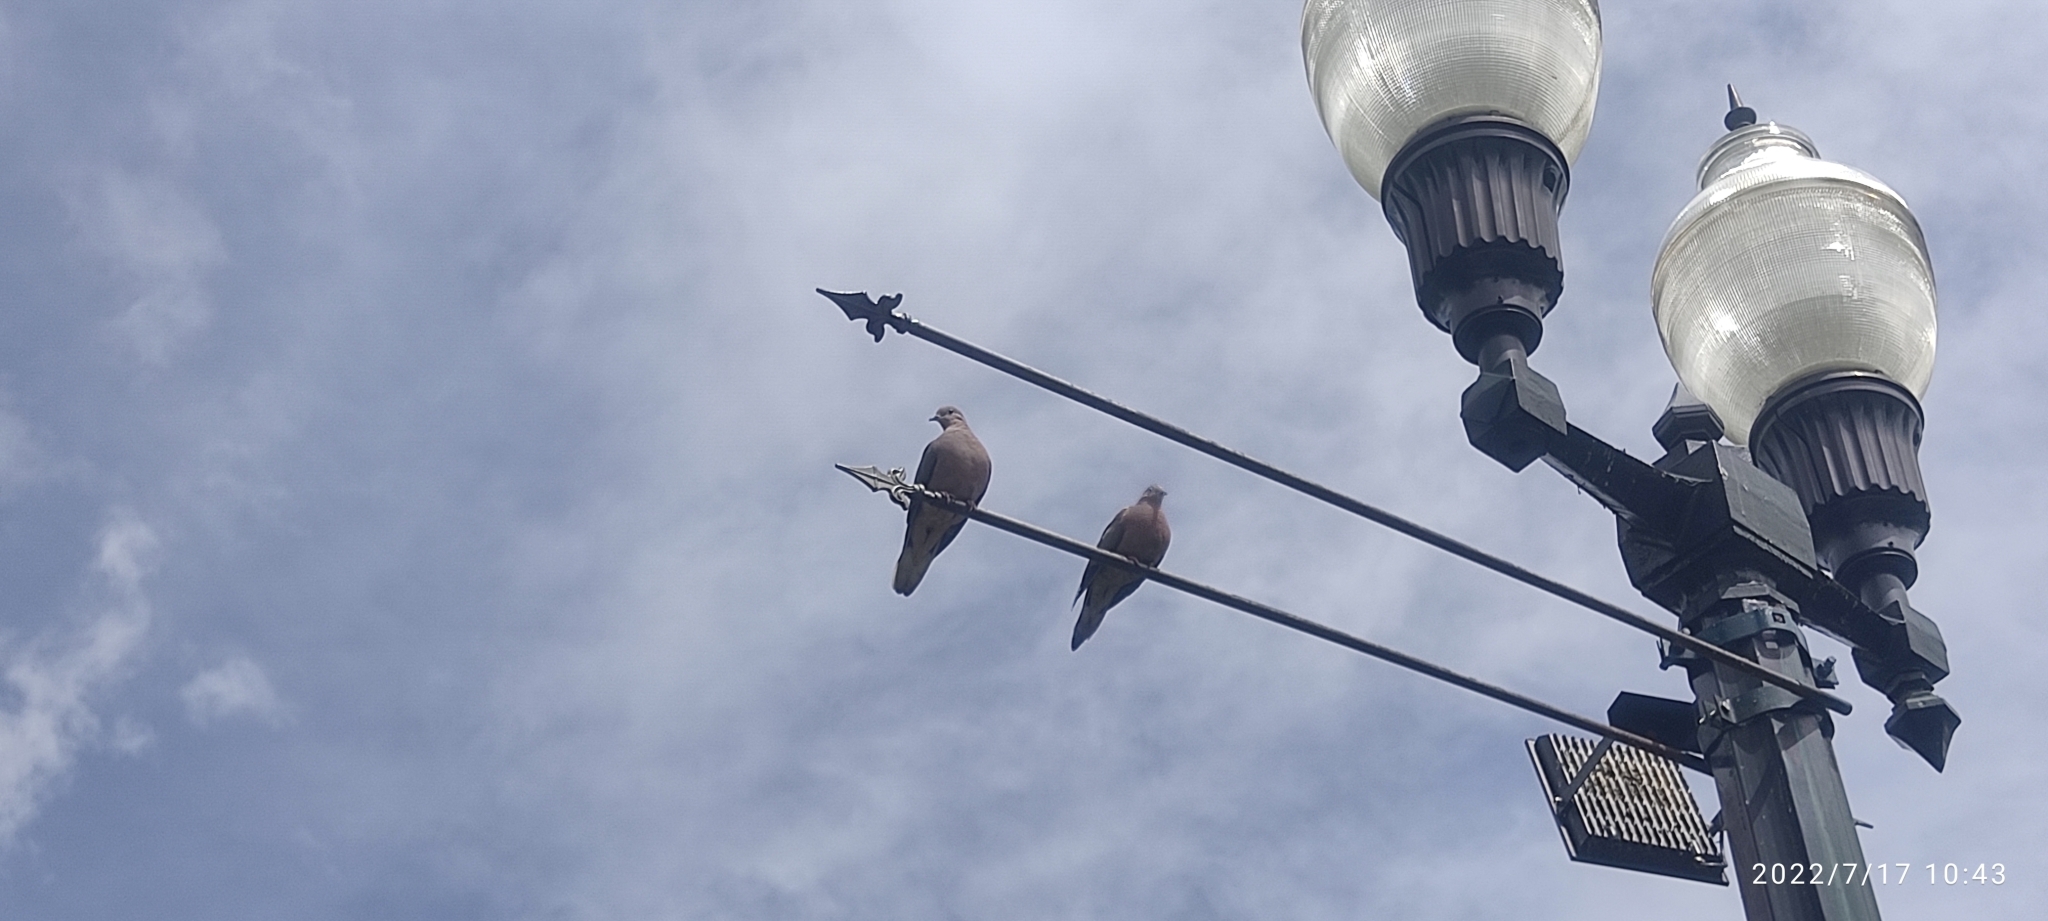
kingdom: Animalia
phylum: Chordata
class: Aves
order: Columbiformes
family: Columbidae
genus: Zenaida
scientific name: Zenaida auriculata
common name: Eared dove
